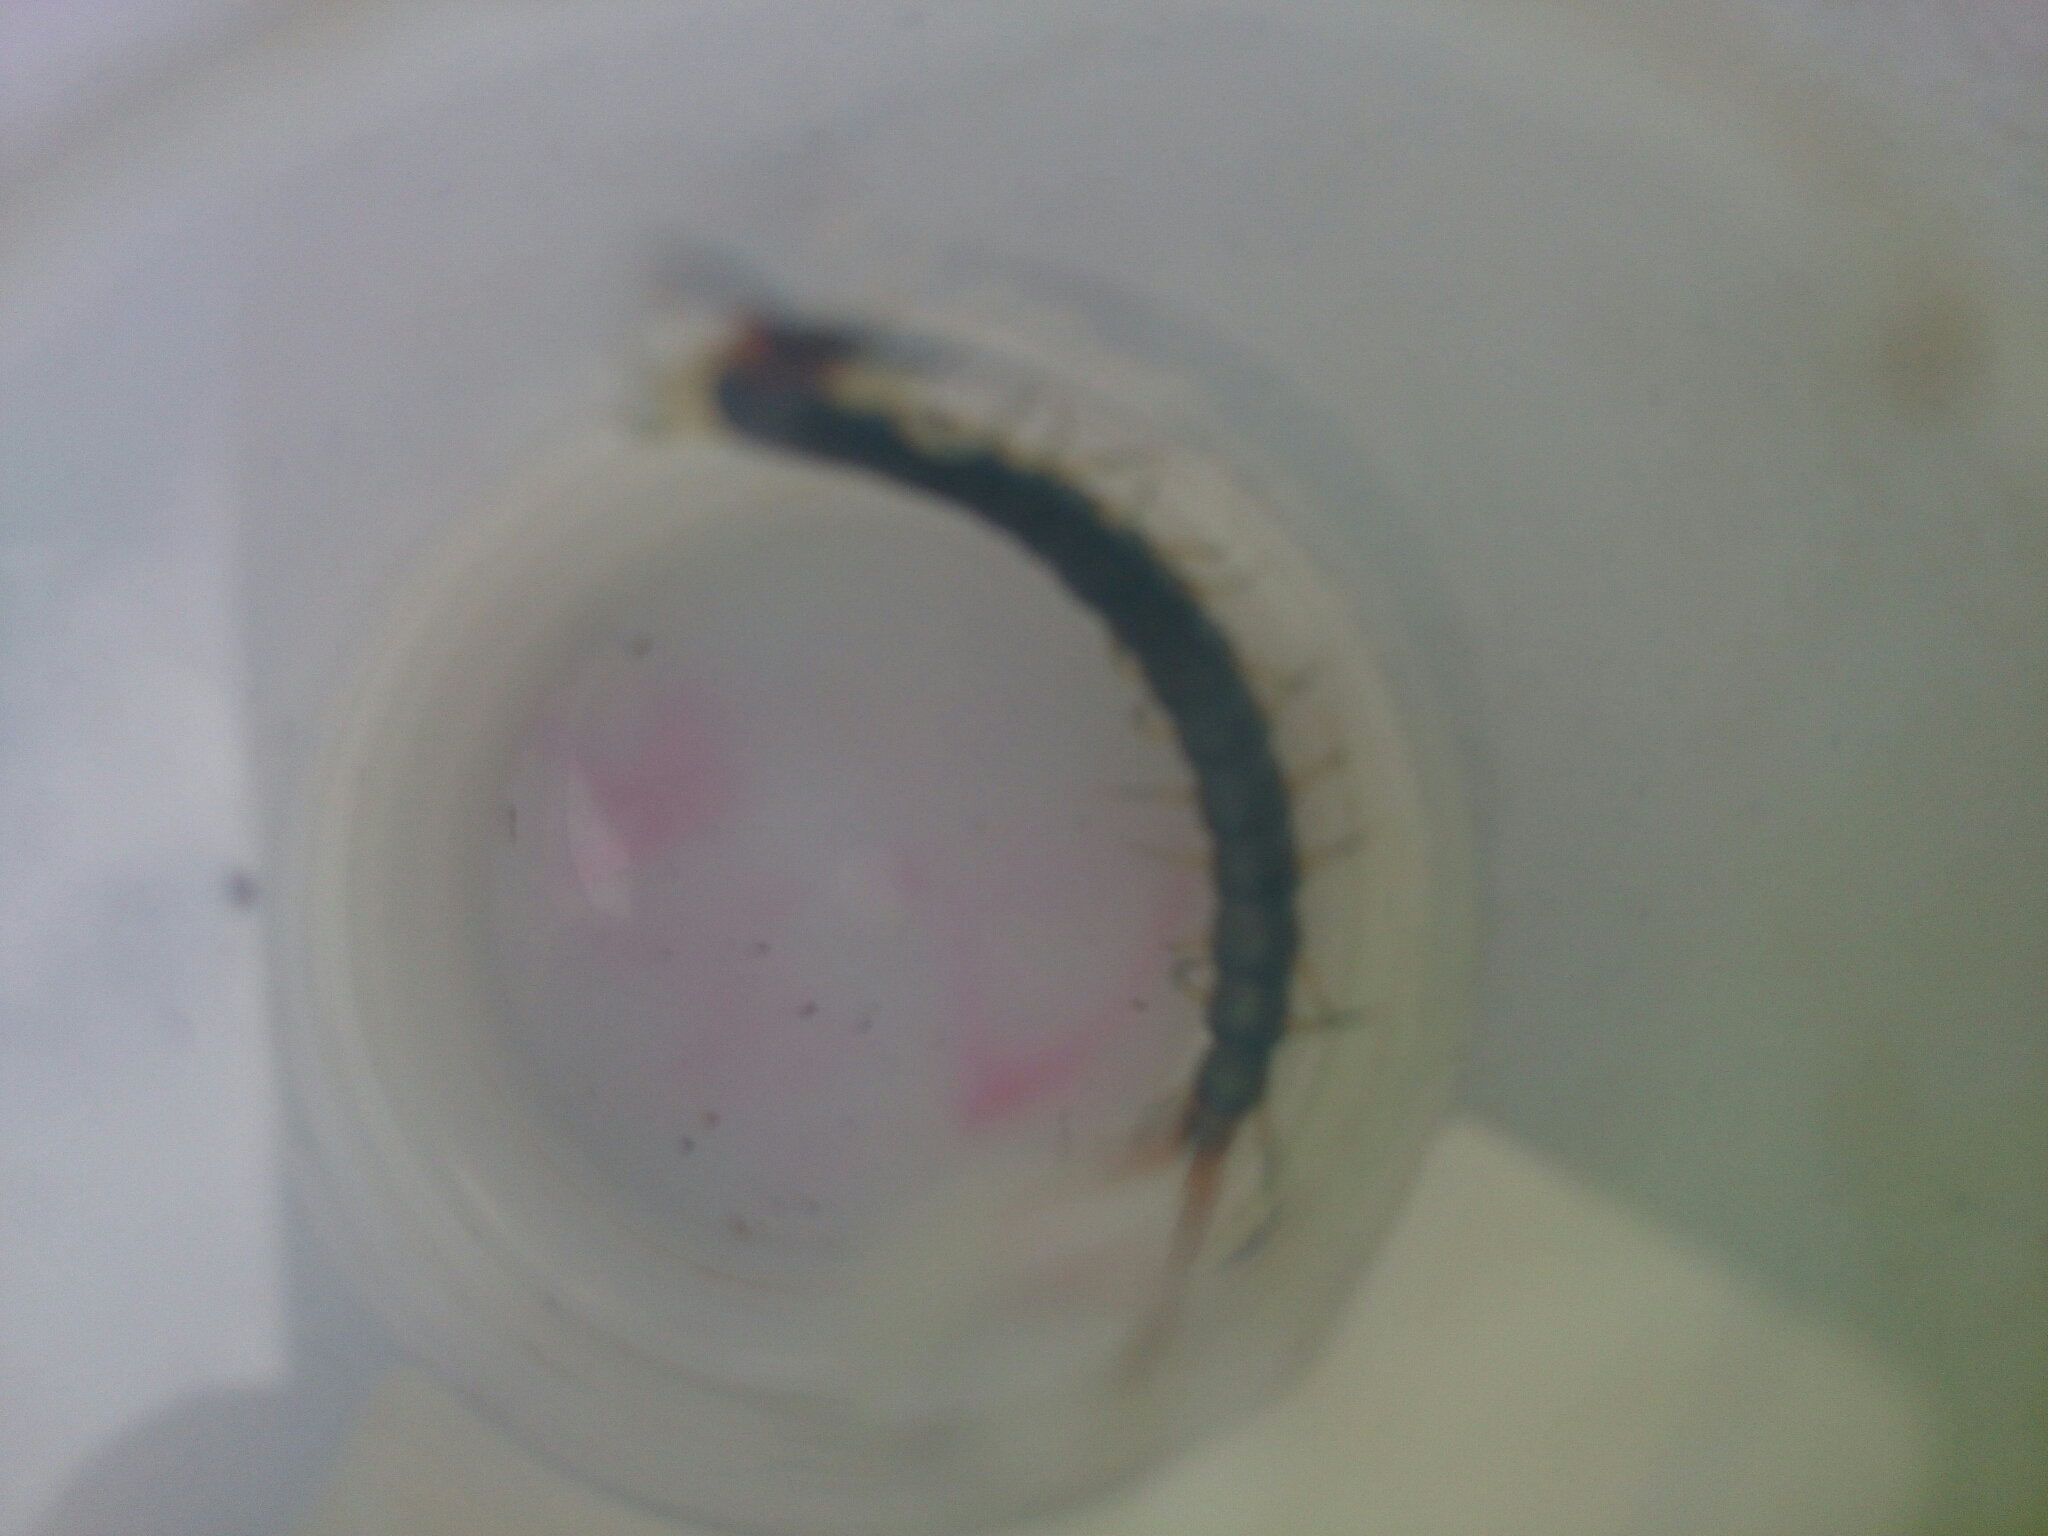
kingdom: Animalia
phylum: Arthropoda
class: Chilopoda
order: Scolopendromorpha
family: Scolopendridae
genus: Cormocephalus
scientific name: Cormocephalus westwoodi
